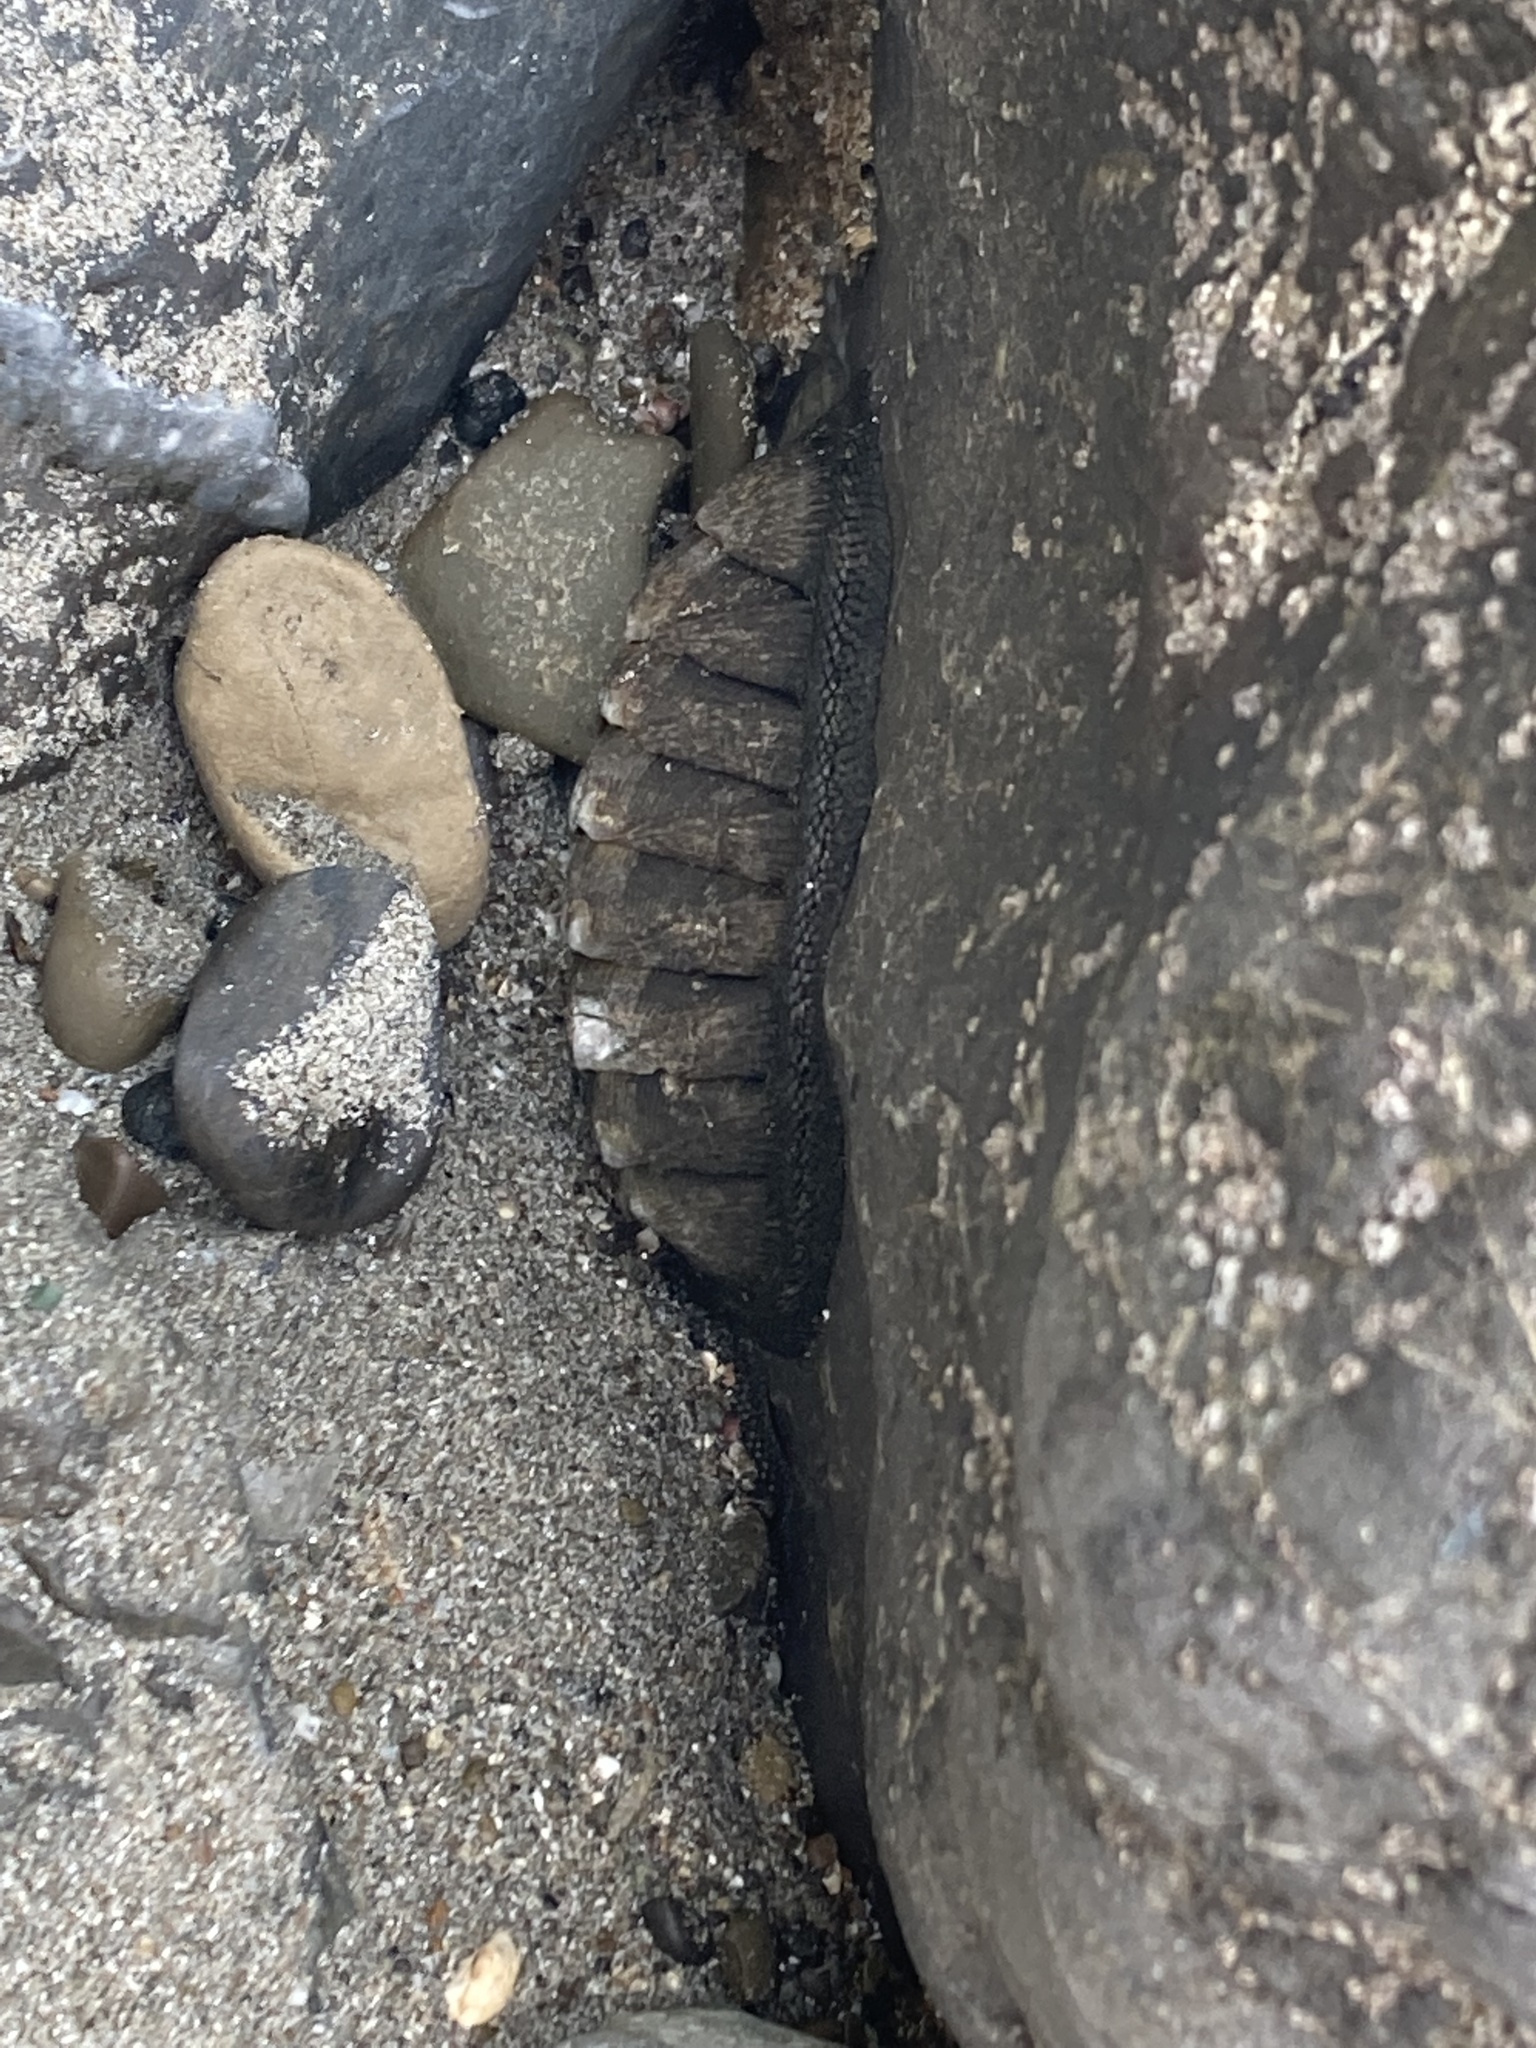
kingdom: Animalia
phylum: Mollusca
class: Polyplacophora
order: Chitonida
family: Chitonidae
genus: Chiton
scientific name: Chiton stokesii
